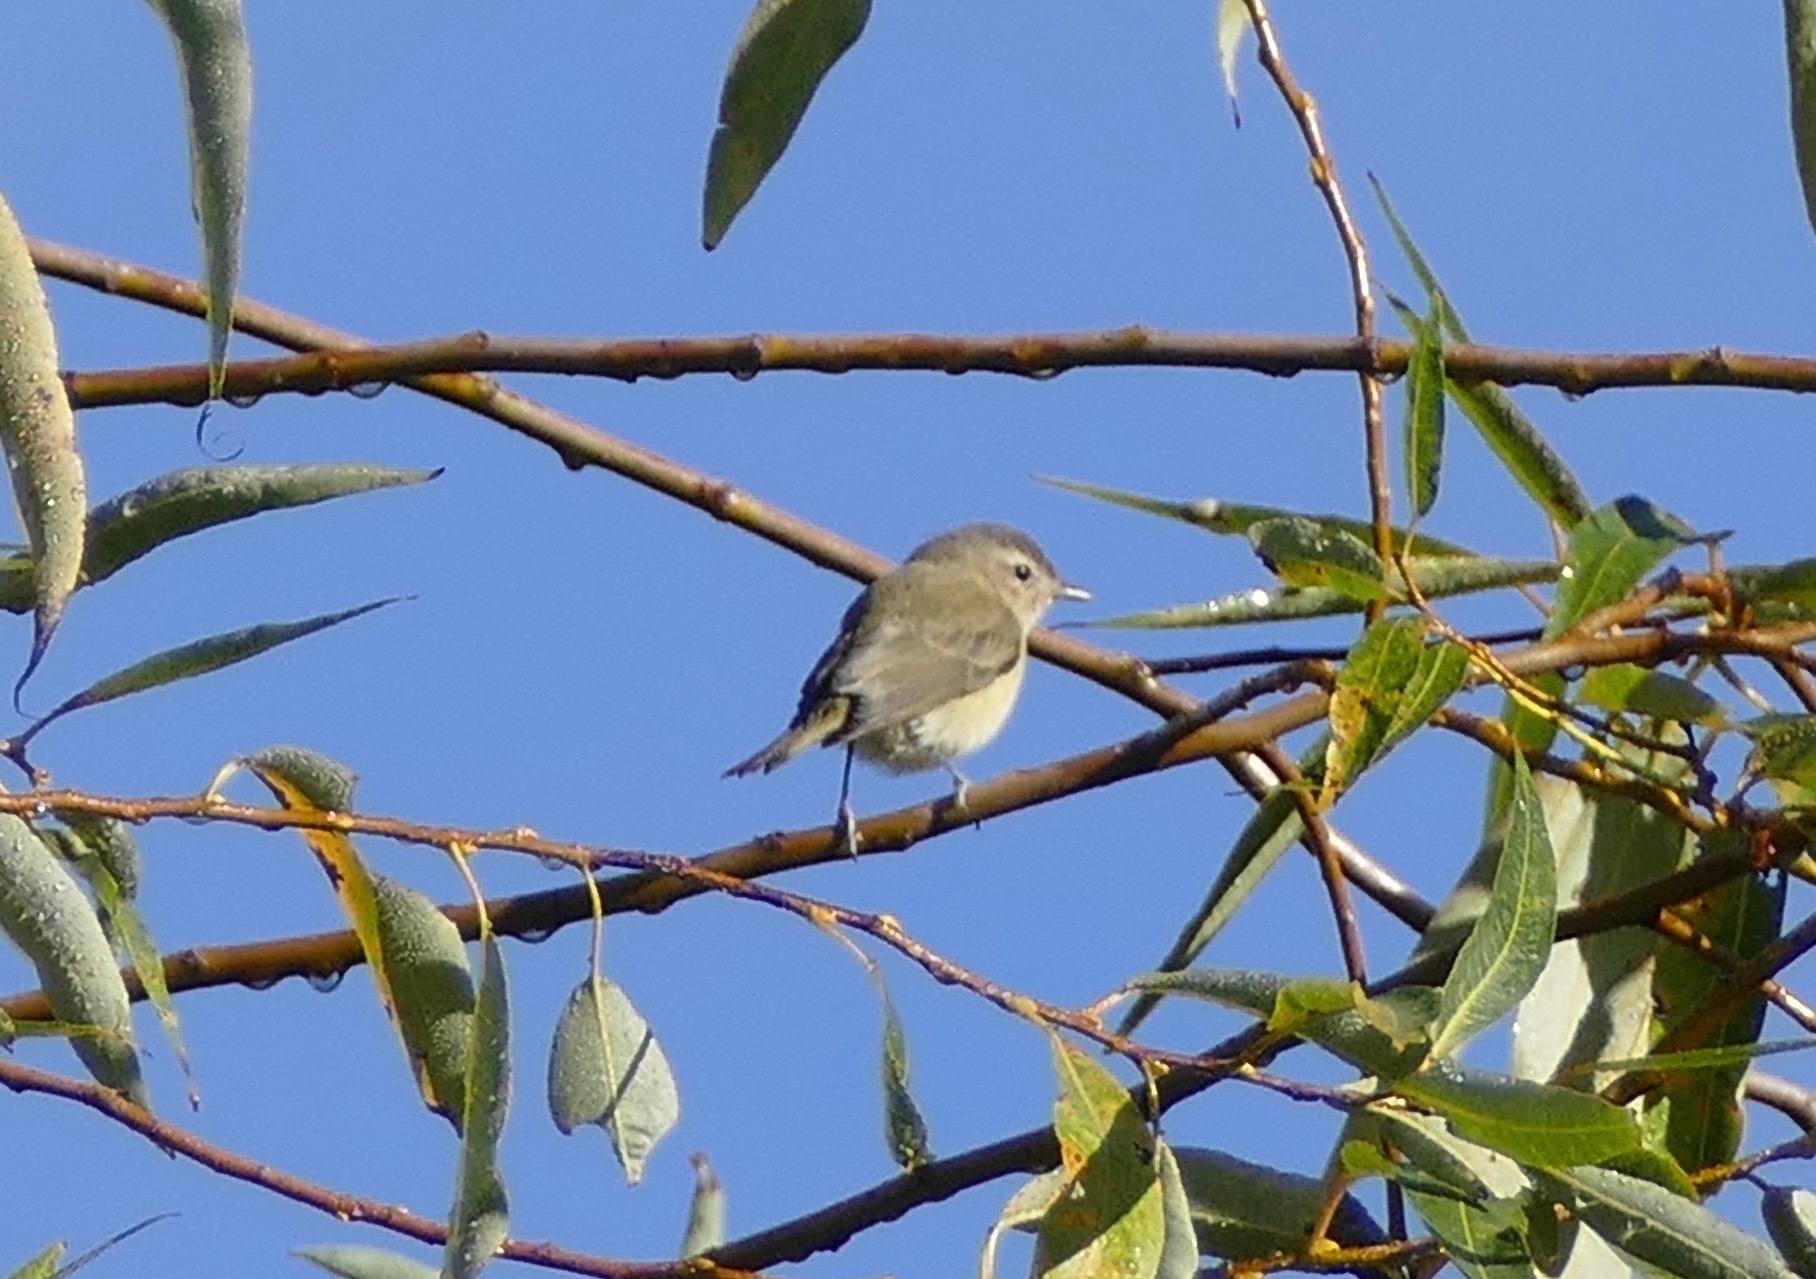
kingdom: Animalia
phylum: Chordata
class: Aves
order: Passeriformes
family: Vireonidae
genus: Vireo
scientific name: Vireo gilvus
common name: Warbling vireo
